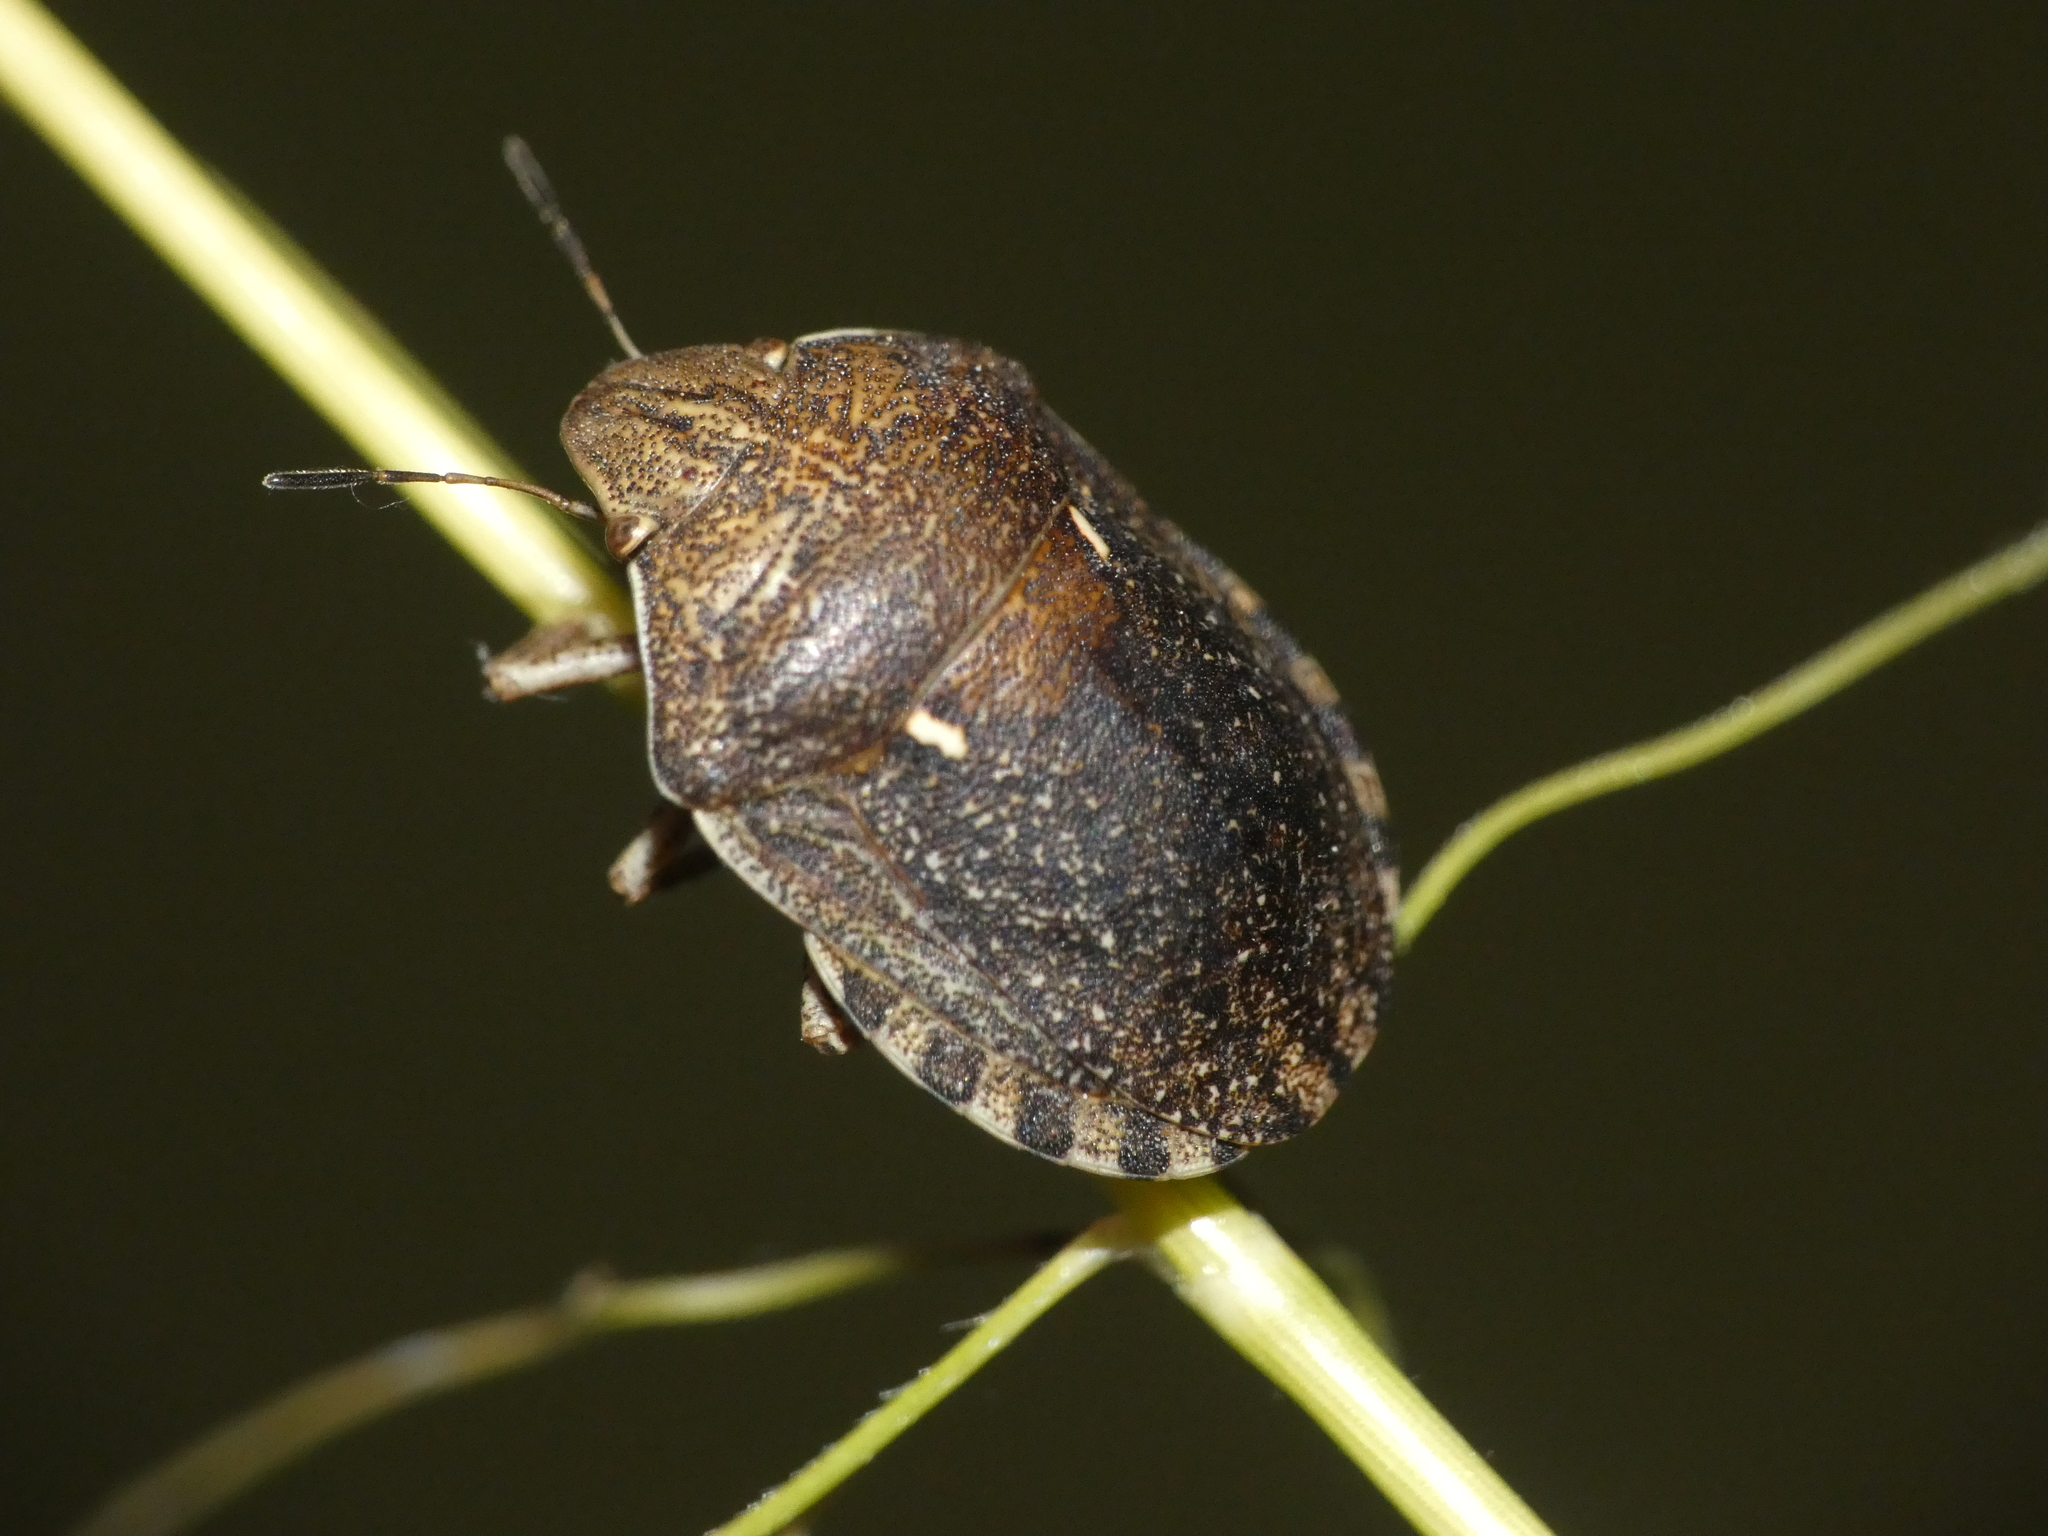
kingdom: Animalia
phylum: Arthropoda
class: Insecta
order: Hemiptera
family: Scutelleridae
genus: Eurygaster
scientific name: Eurygaster maura
